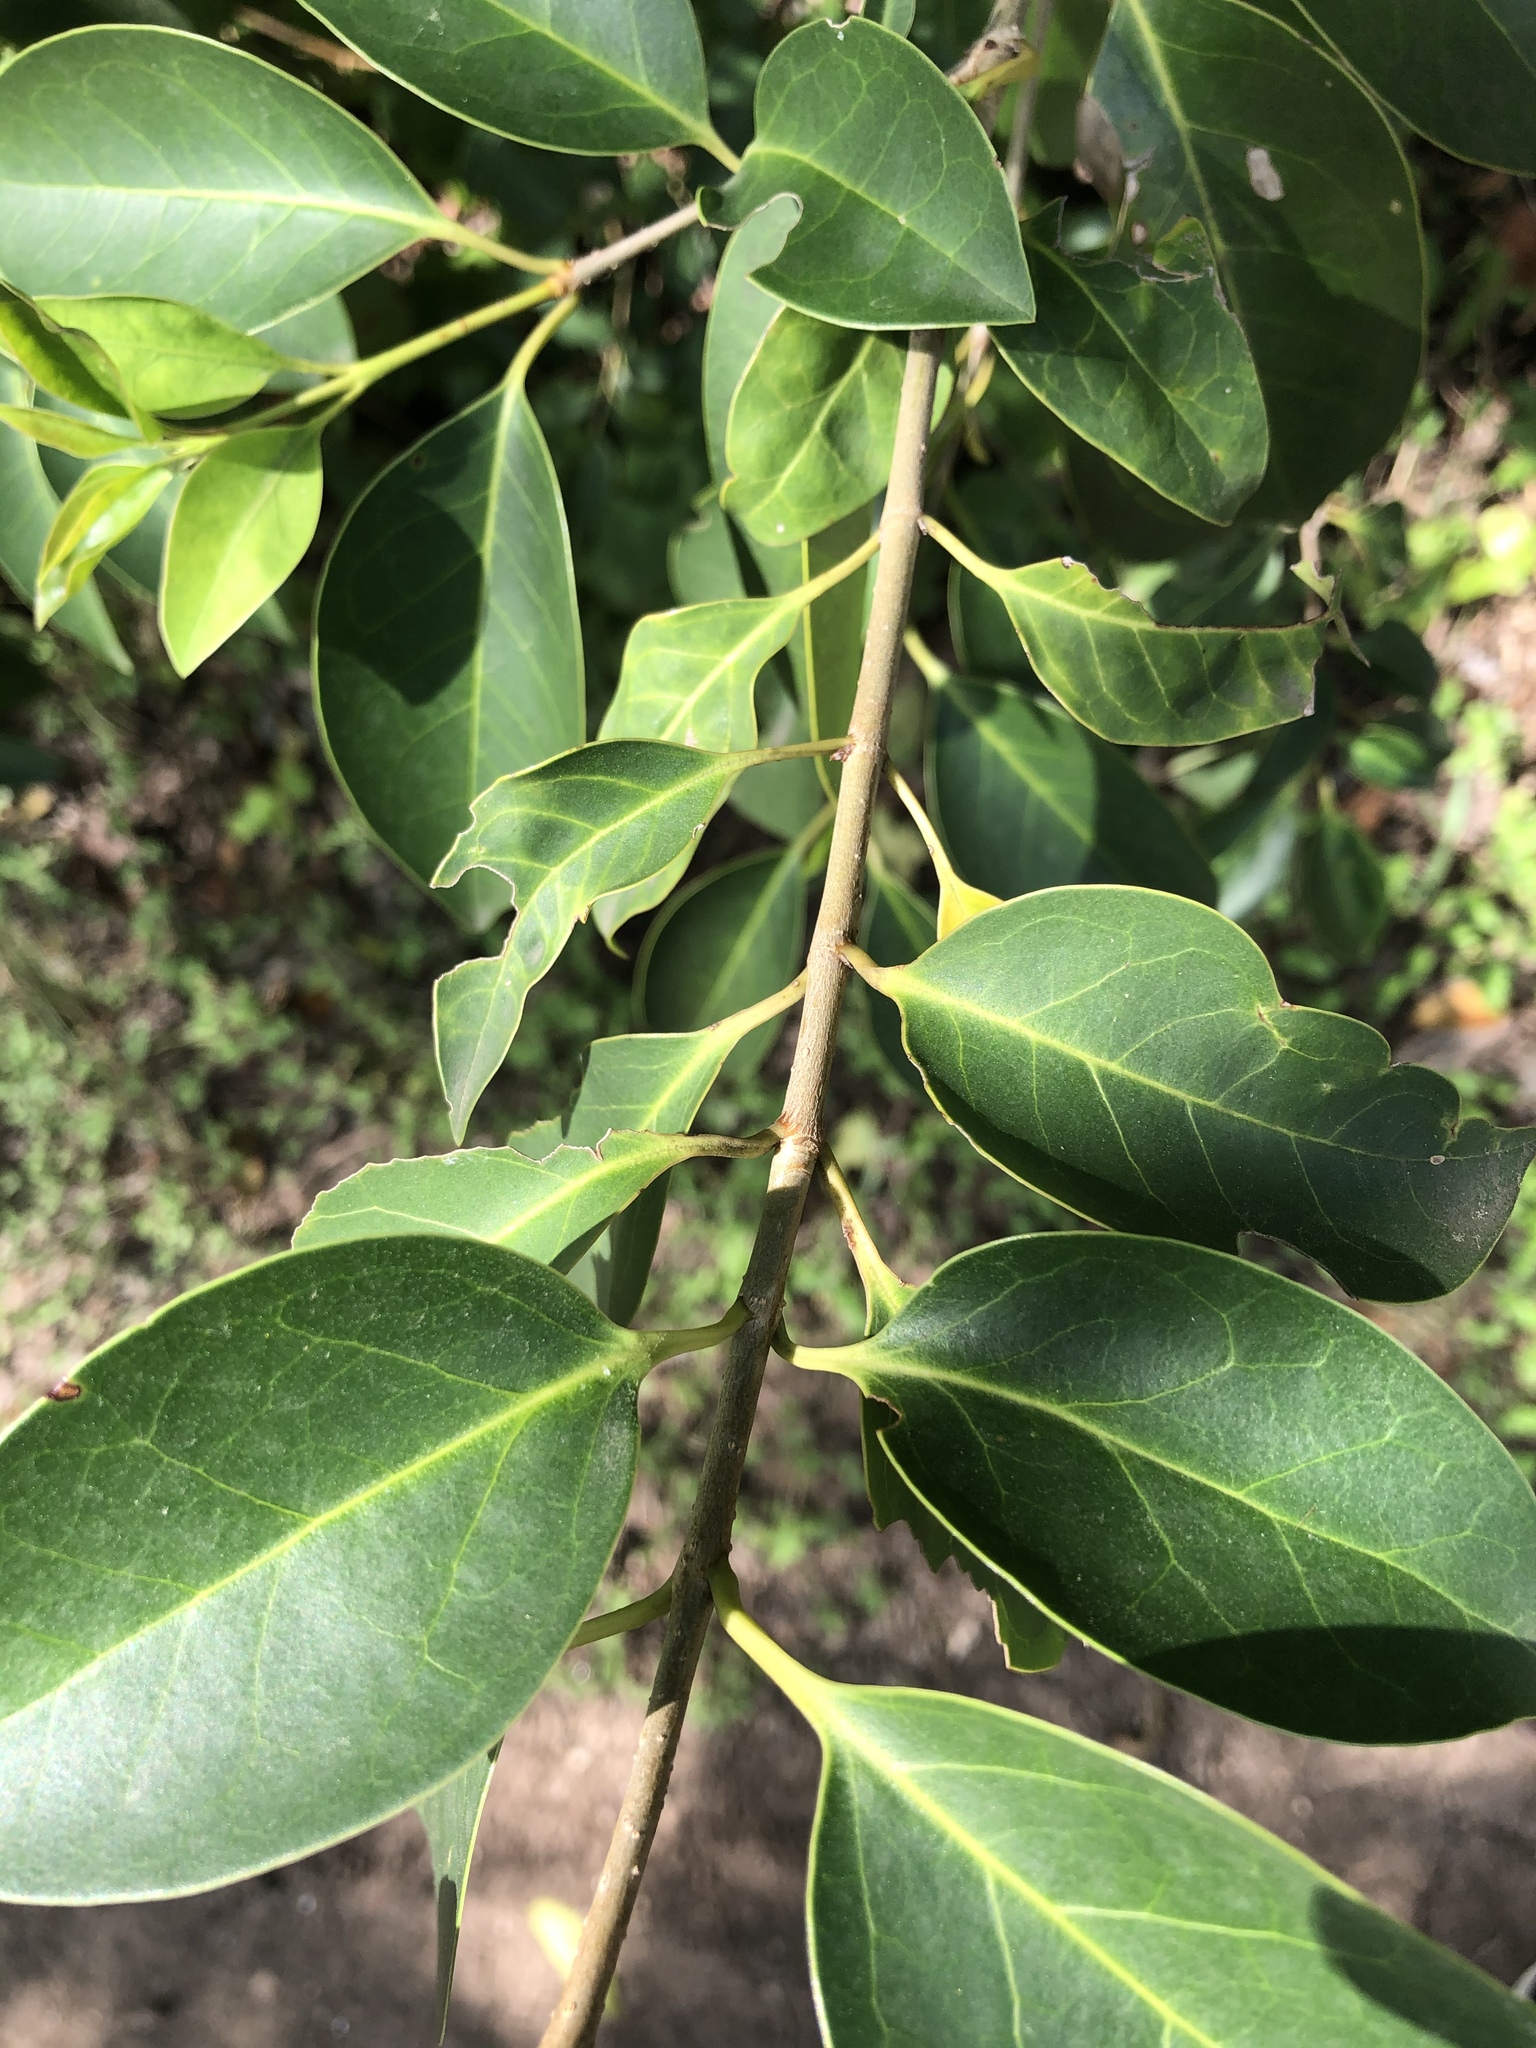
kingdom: Plantae
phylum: Tracheophyta
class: Magnoliopsida
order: Lamiales
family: Oleaceae
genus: Ligustrum
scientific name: Ligustrum lucidum
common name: Glossy privet
